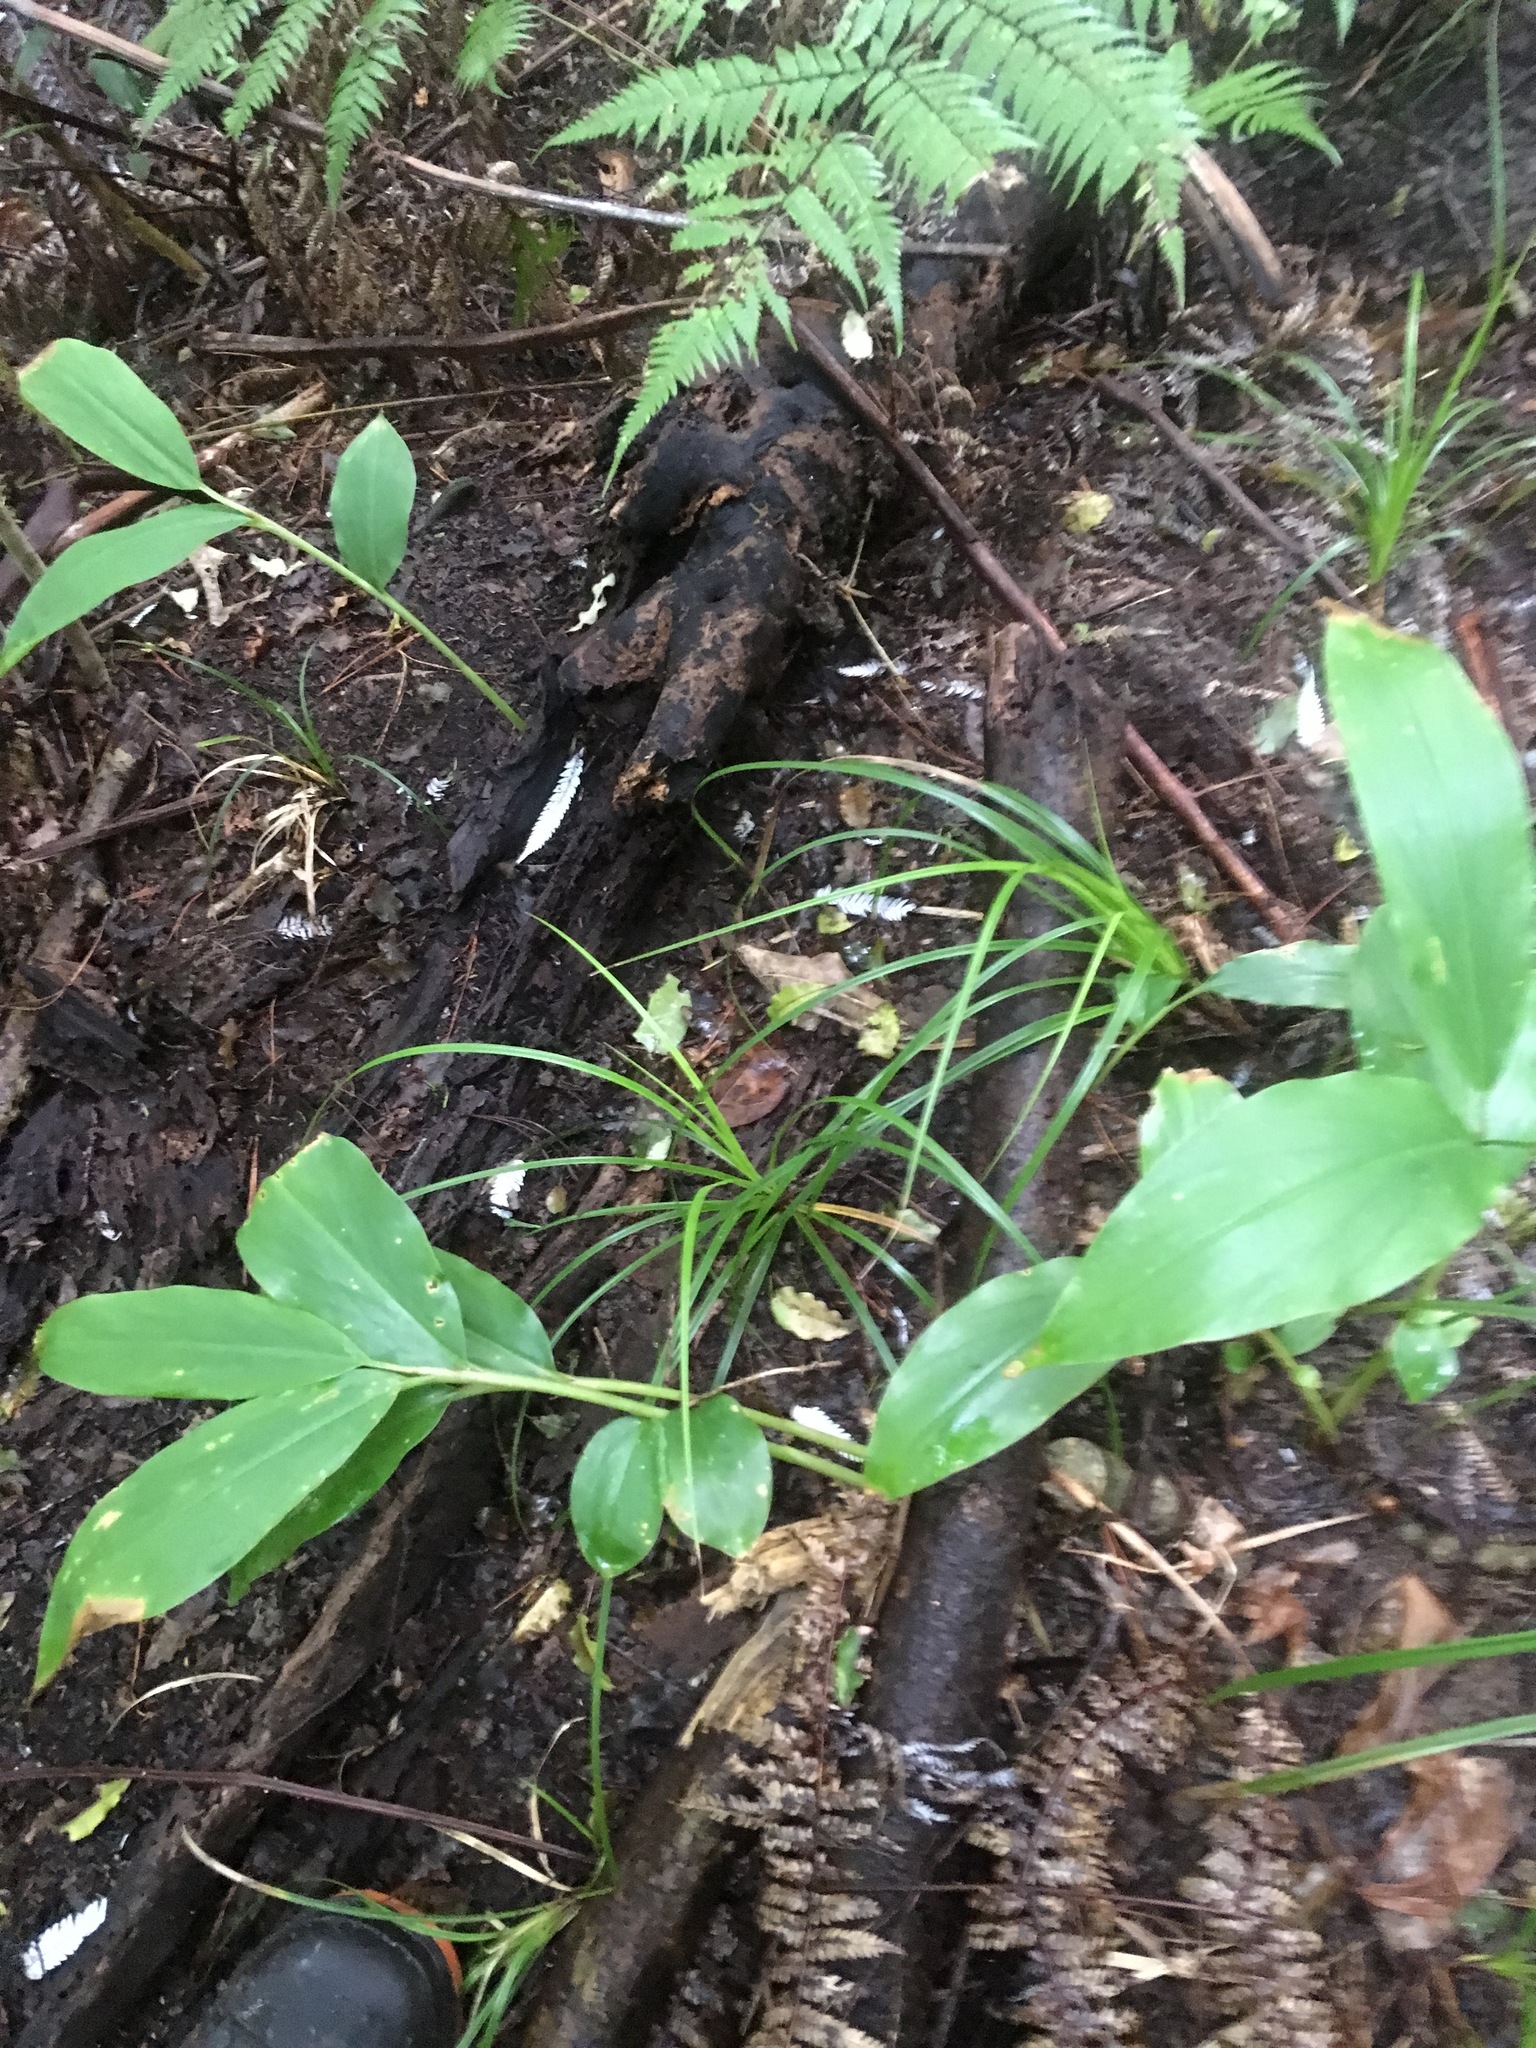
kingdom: Plantae
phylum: Tracheophyta
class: Liliopsida
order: Zingiberales
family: Zingiberaceae
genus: Hedychium
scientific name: Hedychium gardnerianum
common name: Himalayan ginger
